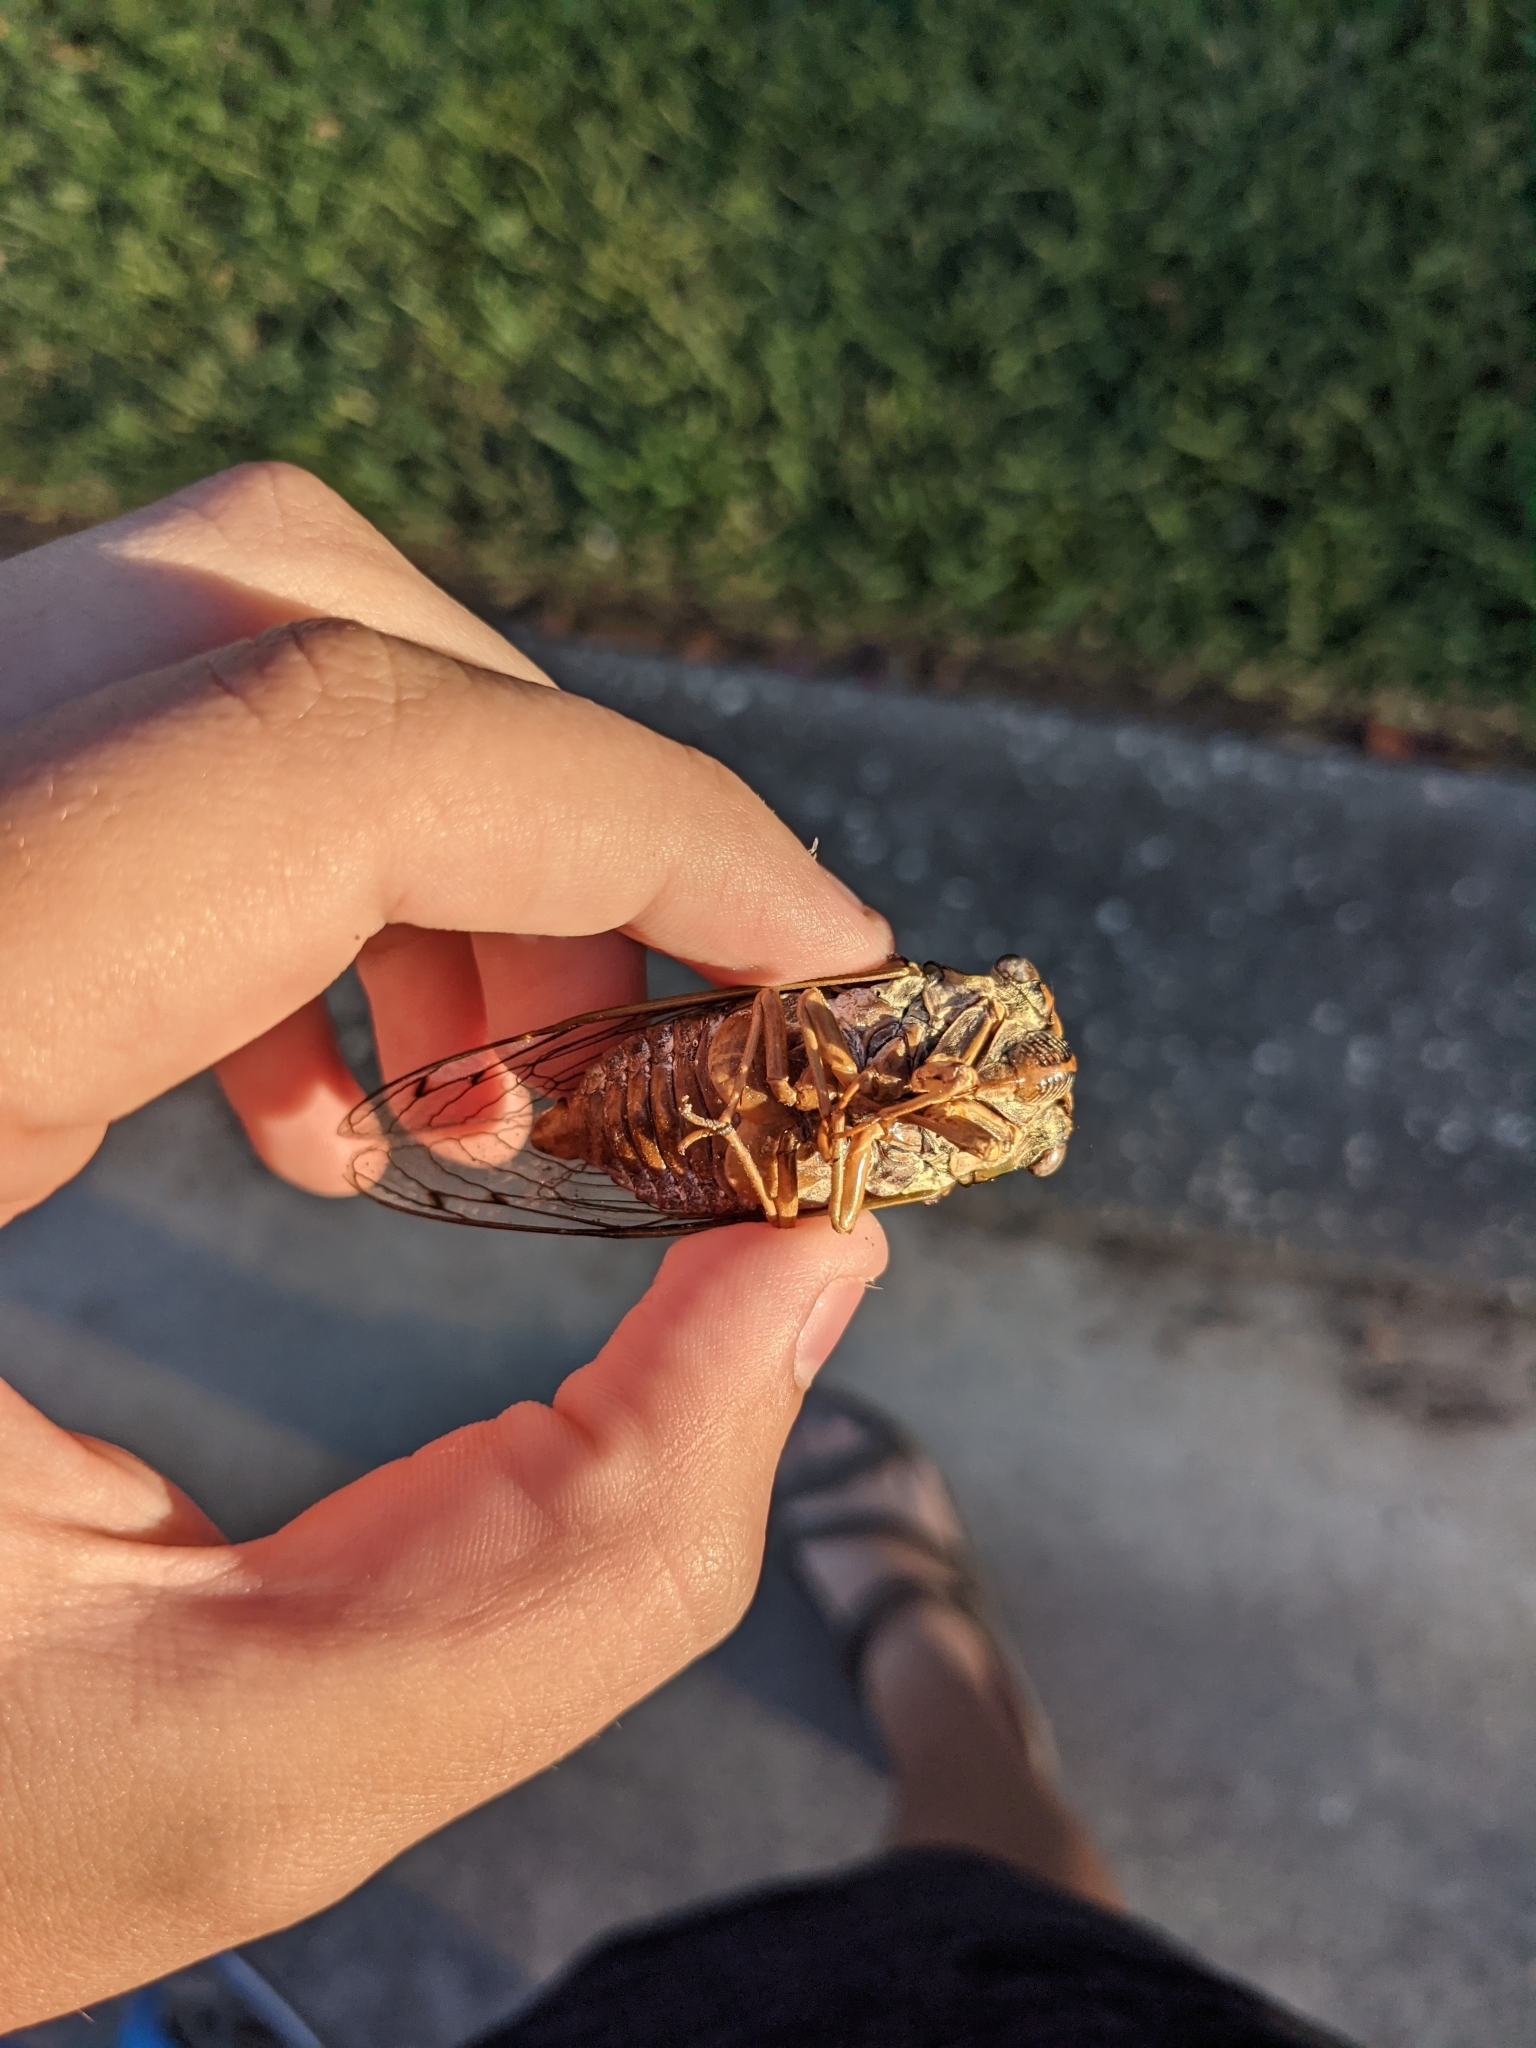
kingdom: Animalia
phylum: Arthropoda
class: Insecta
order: Hemiptera
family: Cicadidae
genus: Megatibicen
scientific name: Megatibicen resh
